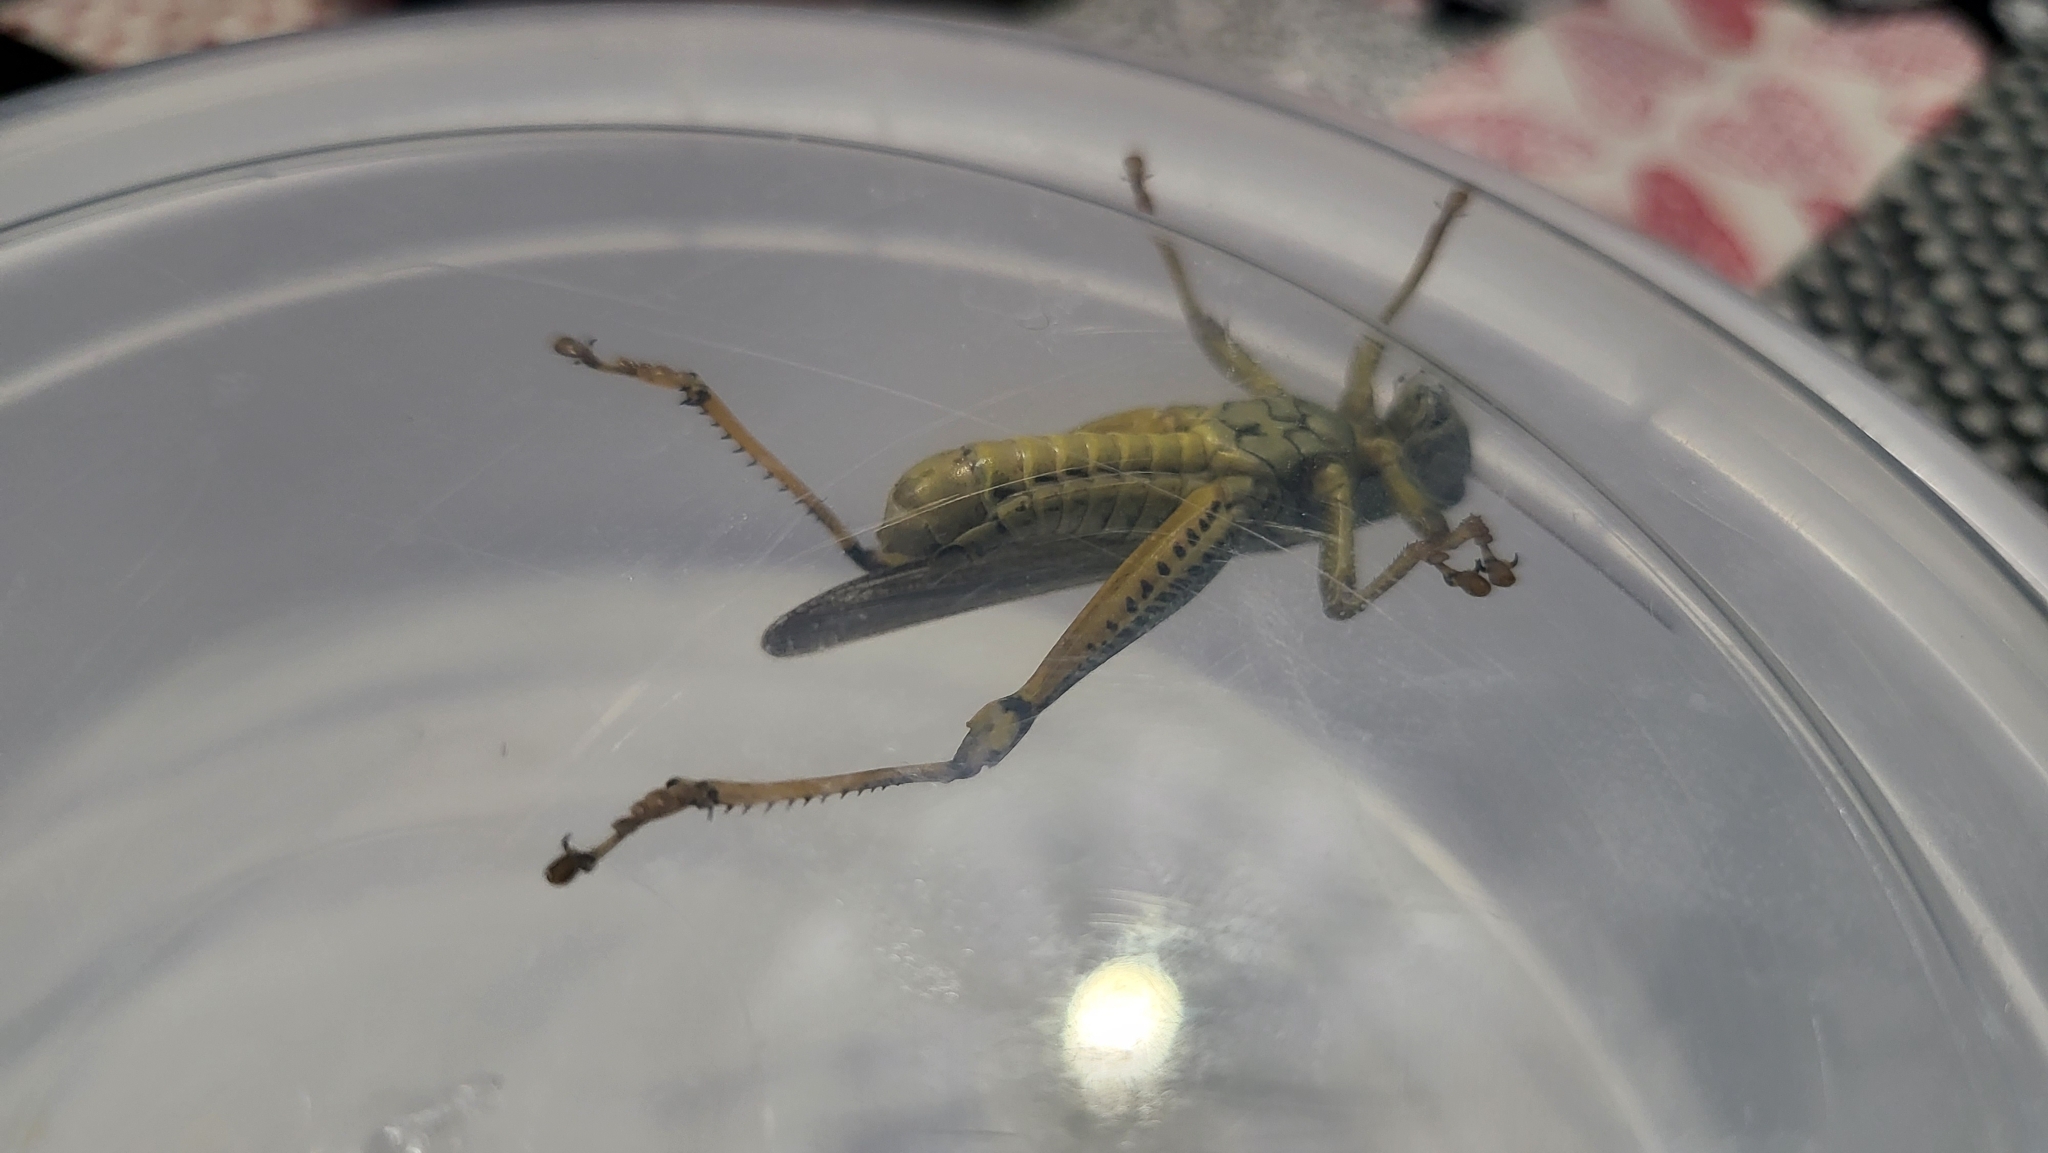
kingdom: Animalia
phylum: Arthropoda
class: Insecta
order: Orthoptera
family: Acrididae
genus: Melanoplus
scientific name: Melanoplus differentialis
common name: Differential grasshopper
